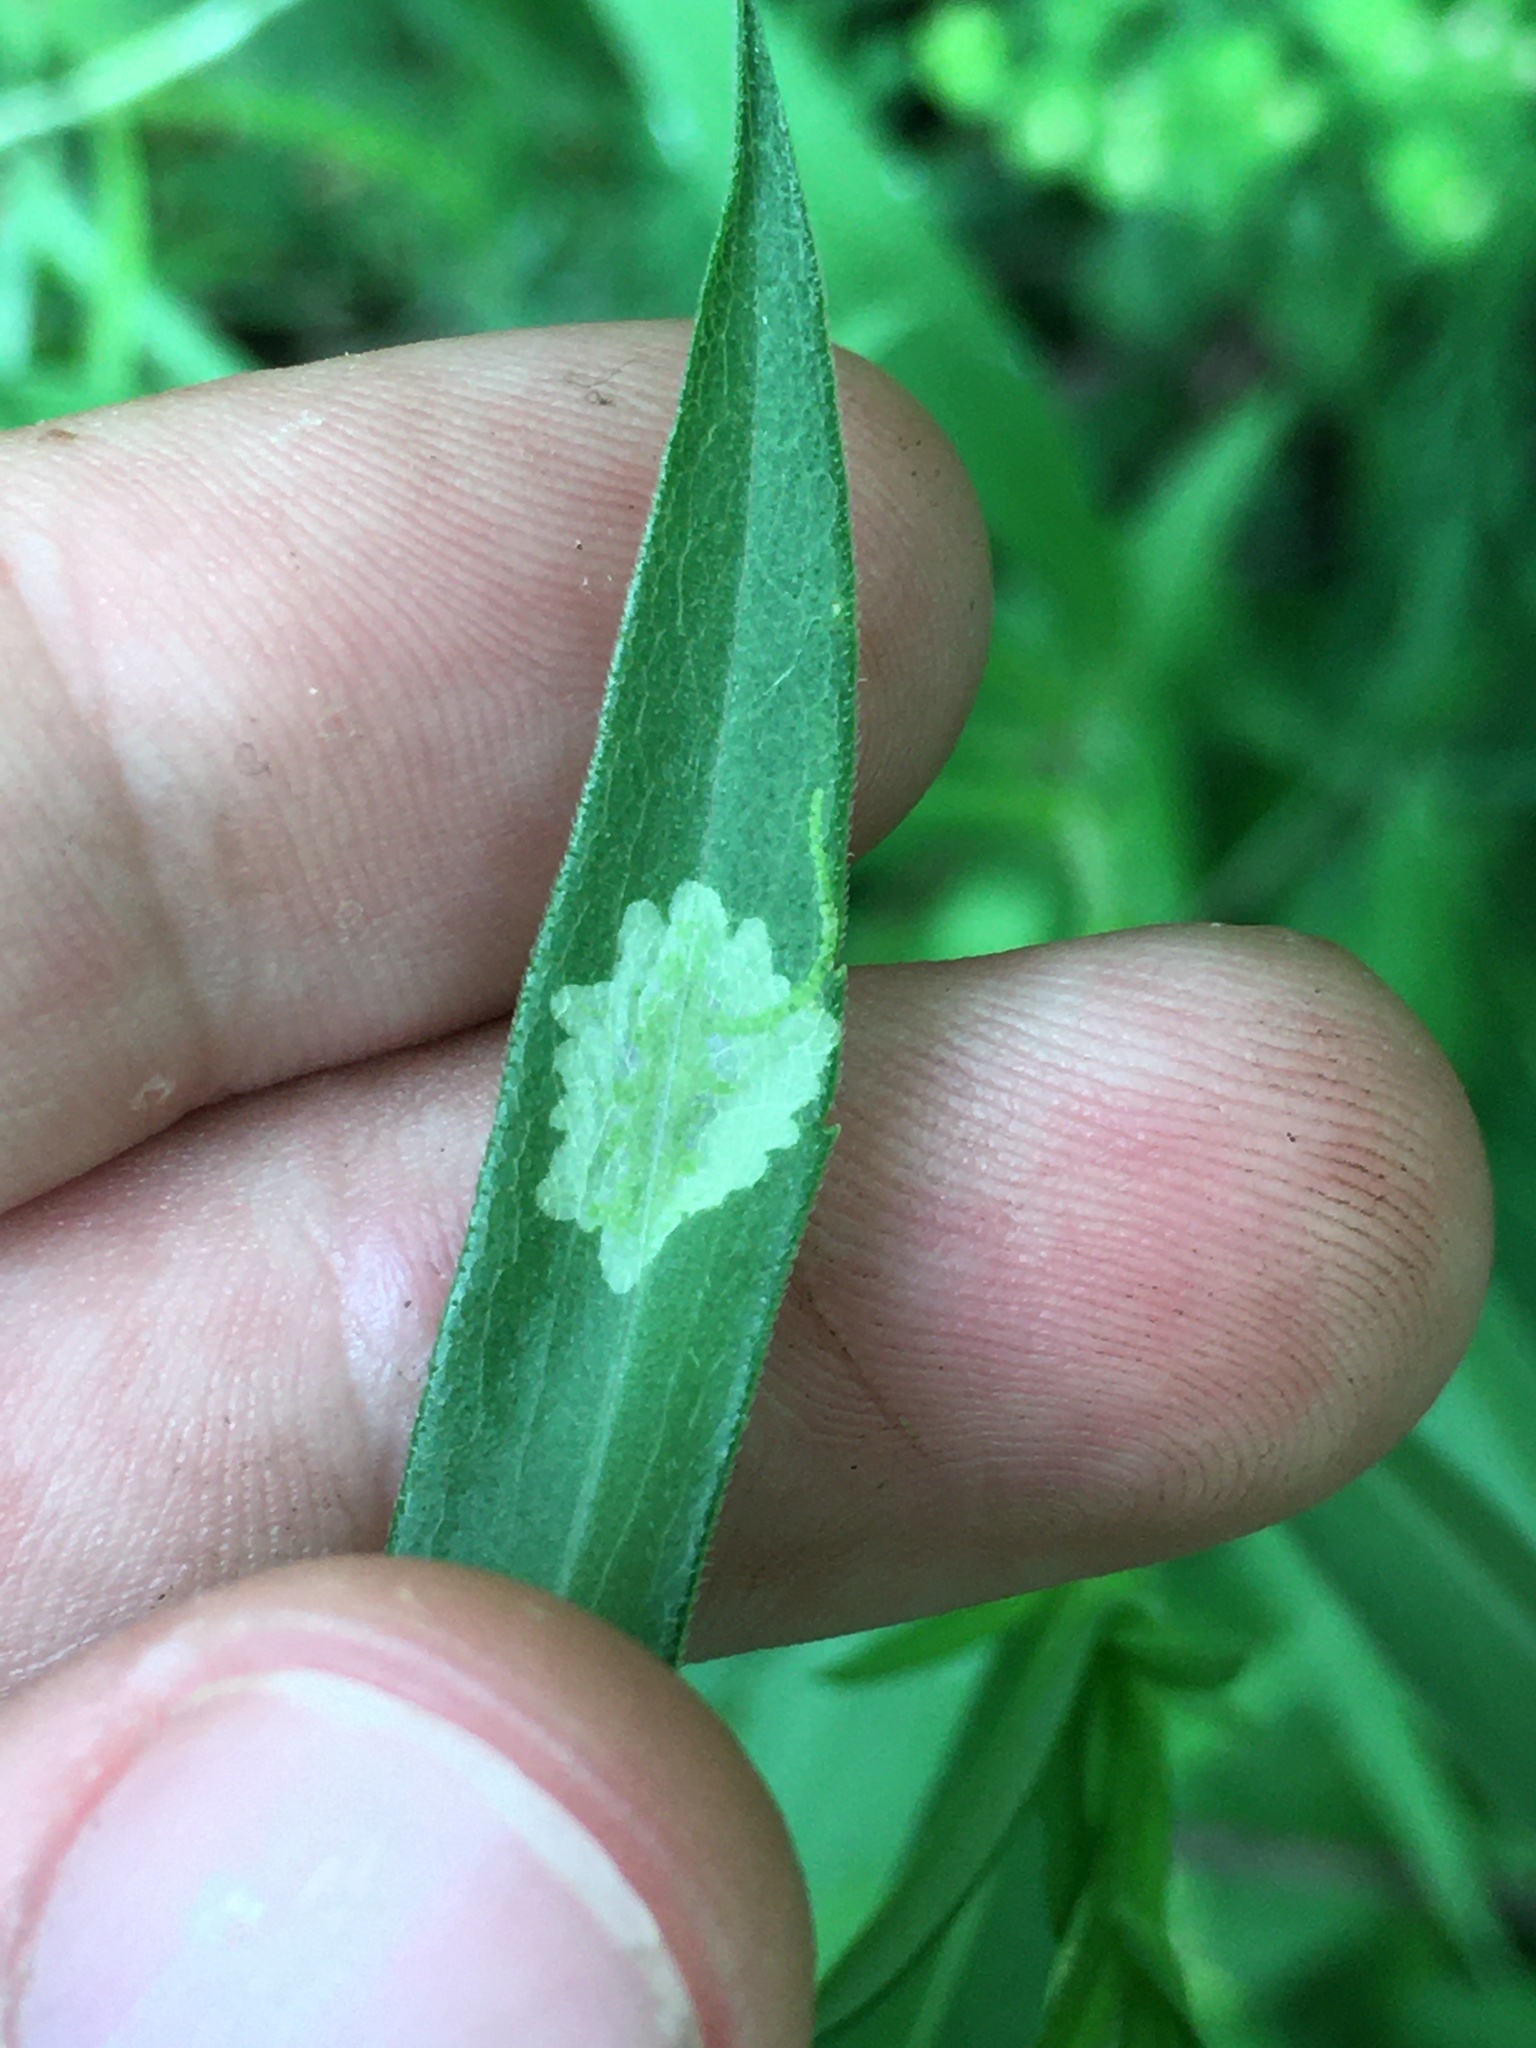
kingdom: Animalia
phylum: Arthropoda
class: Insecta
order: Diptera
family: Agromyzidae
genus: Calycomyza
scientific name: Calycomyza promissa
